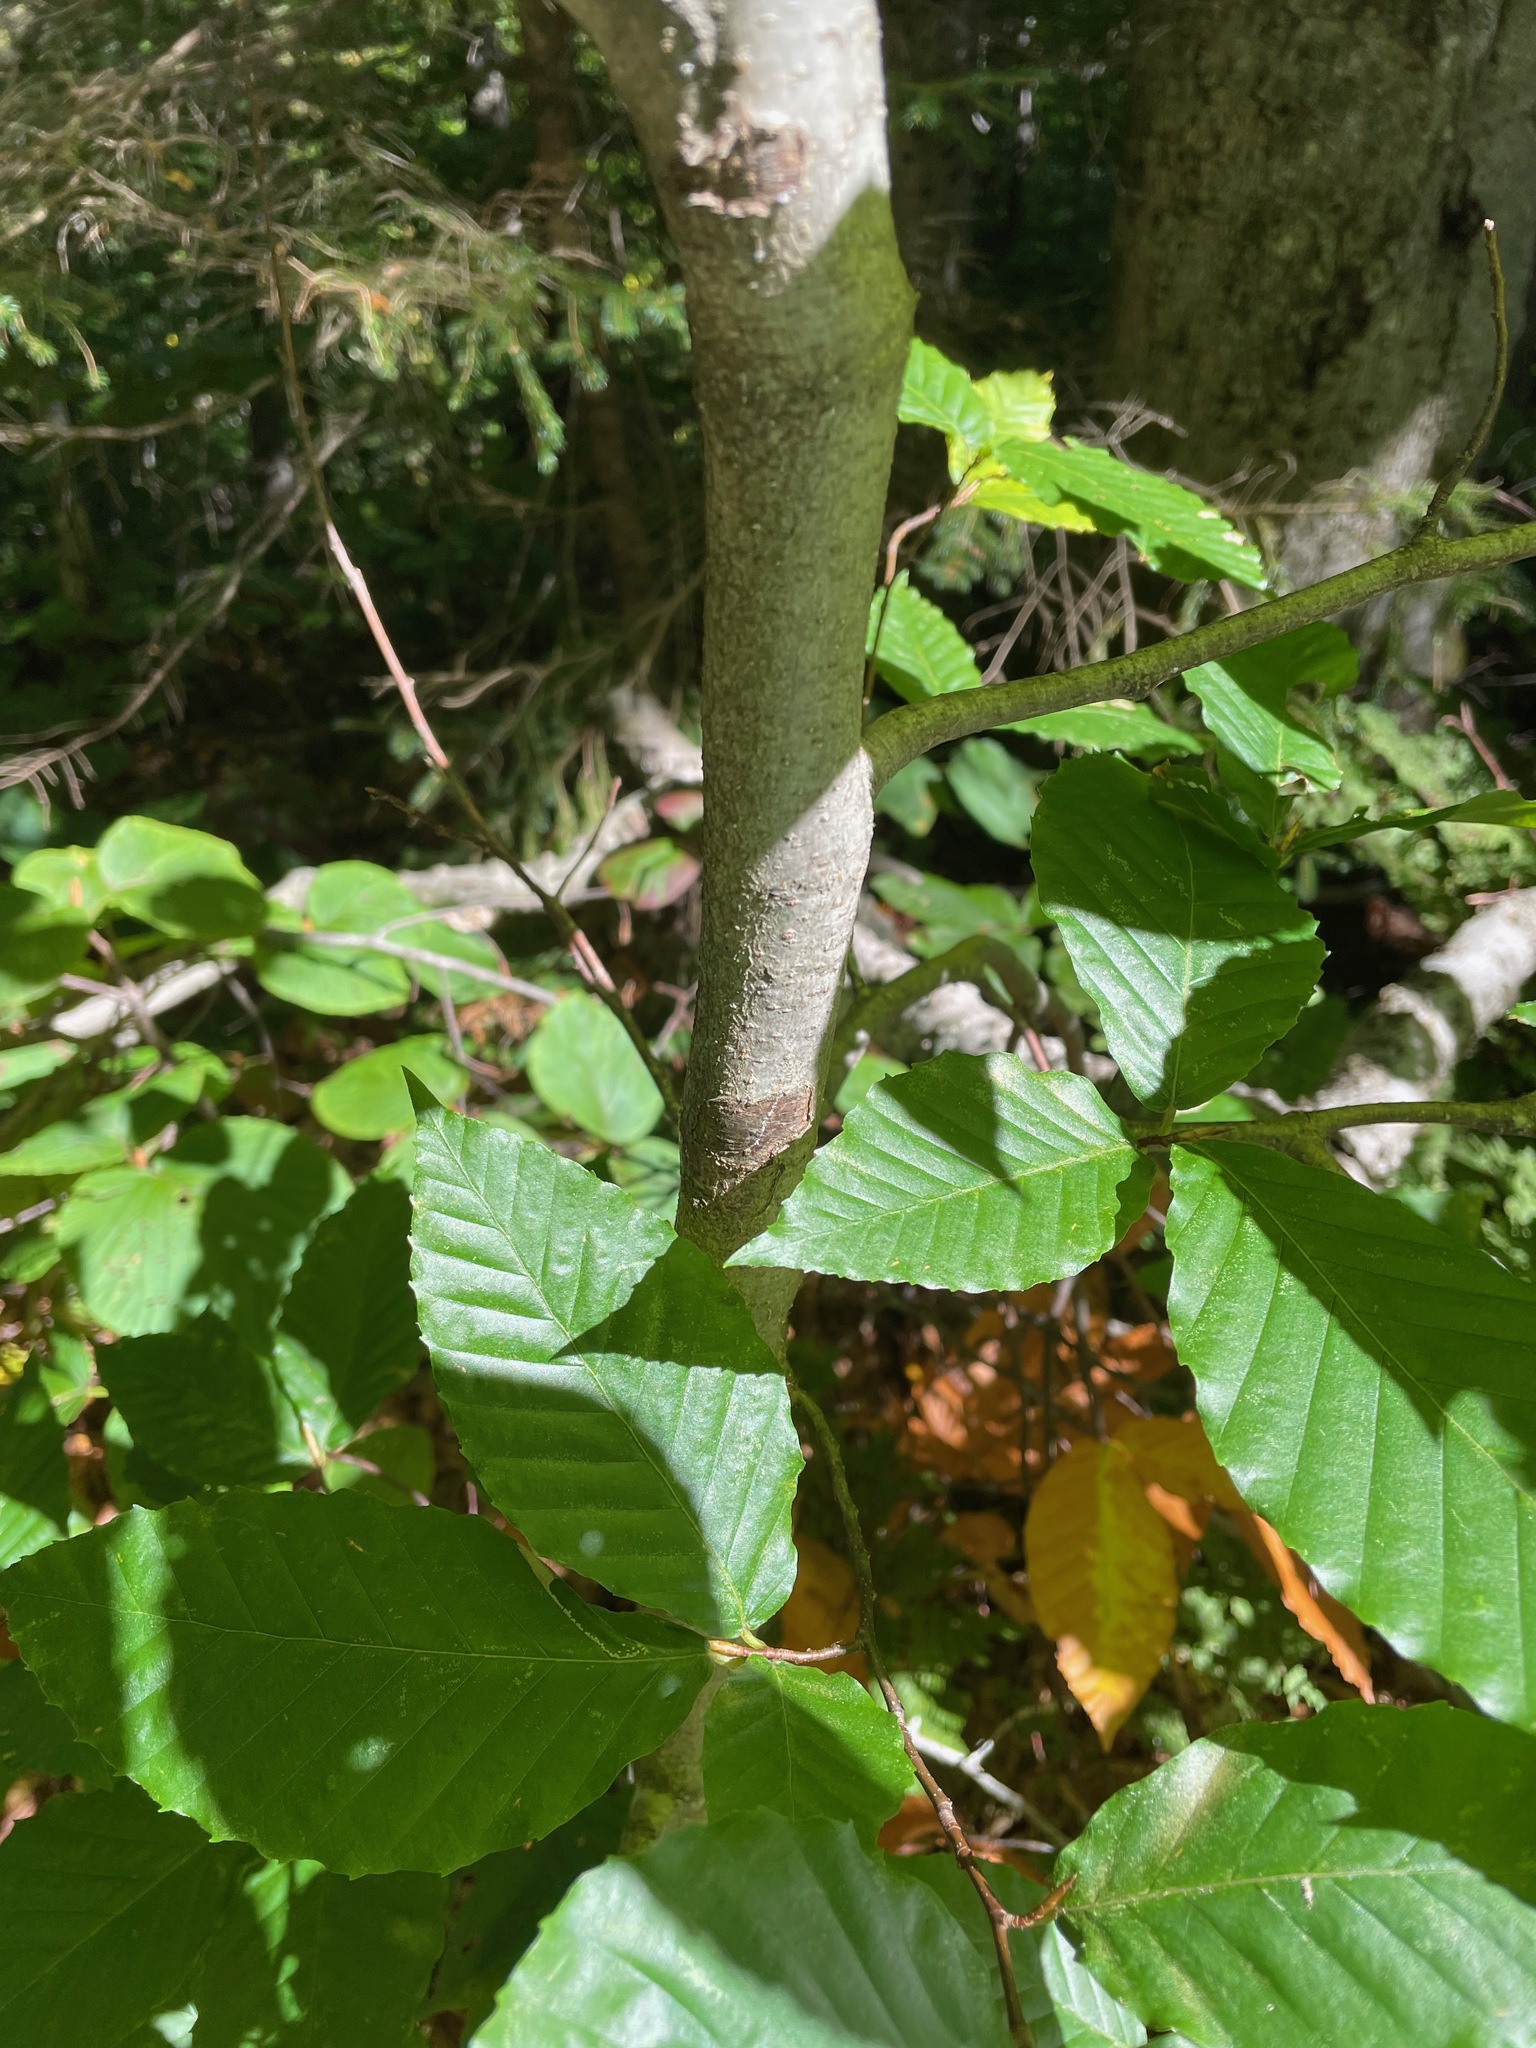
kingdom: Plantae
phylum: Tracheophyta
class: Magnoliopsida
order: Fagales
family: Fagaceae
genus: Fagus
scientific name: Fagus grandifolia
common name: American beech
